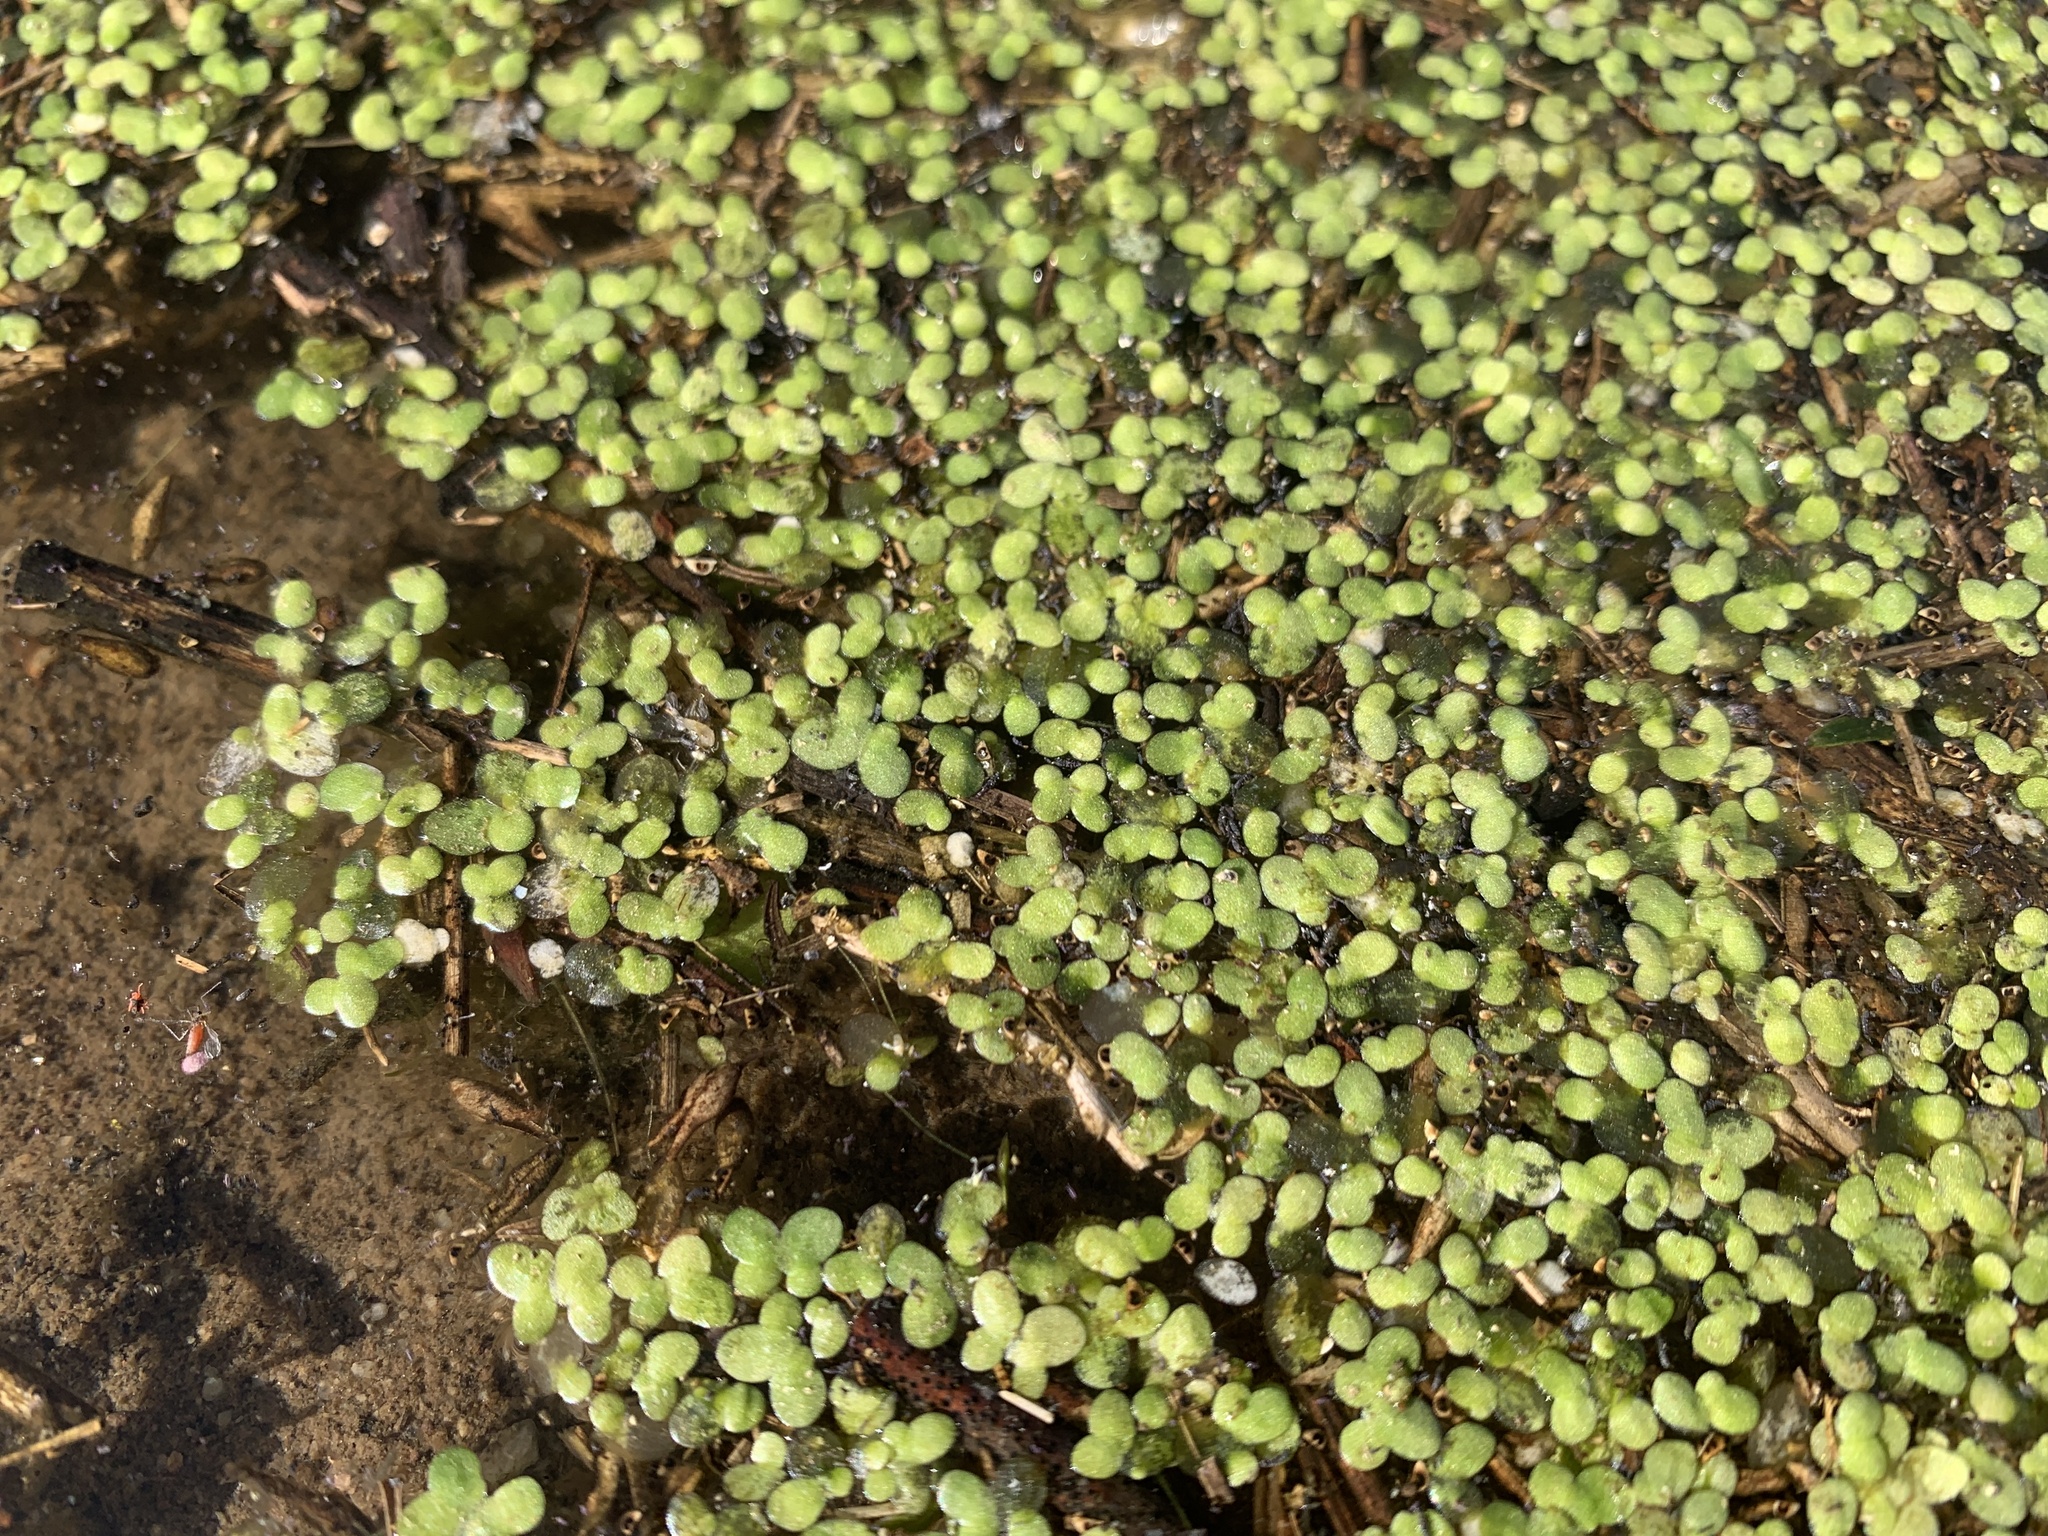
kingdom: Plantae
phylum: Tracheophyta
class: Liliopsida
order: Alismatales
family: Araceae
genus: Lemna
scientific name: Lemna minuta
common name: Least duckweed
